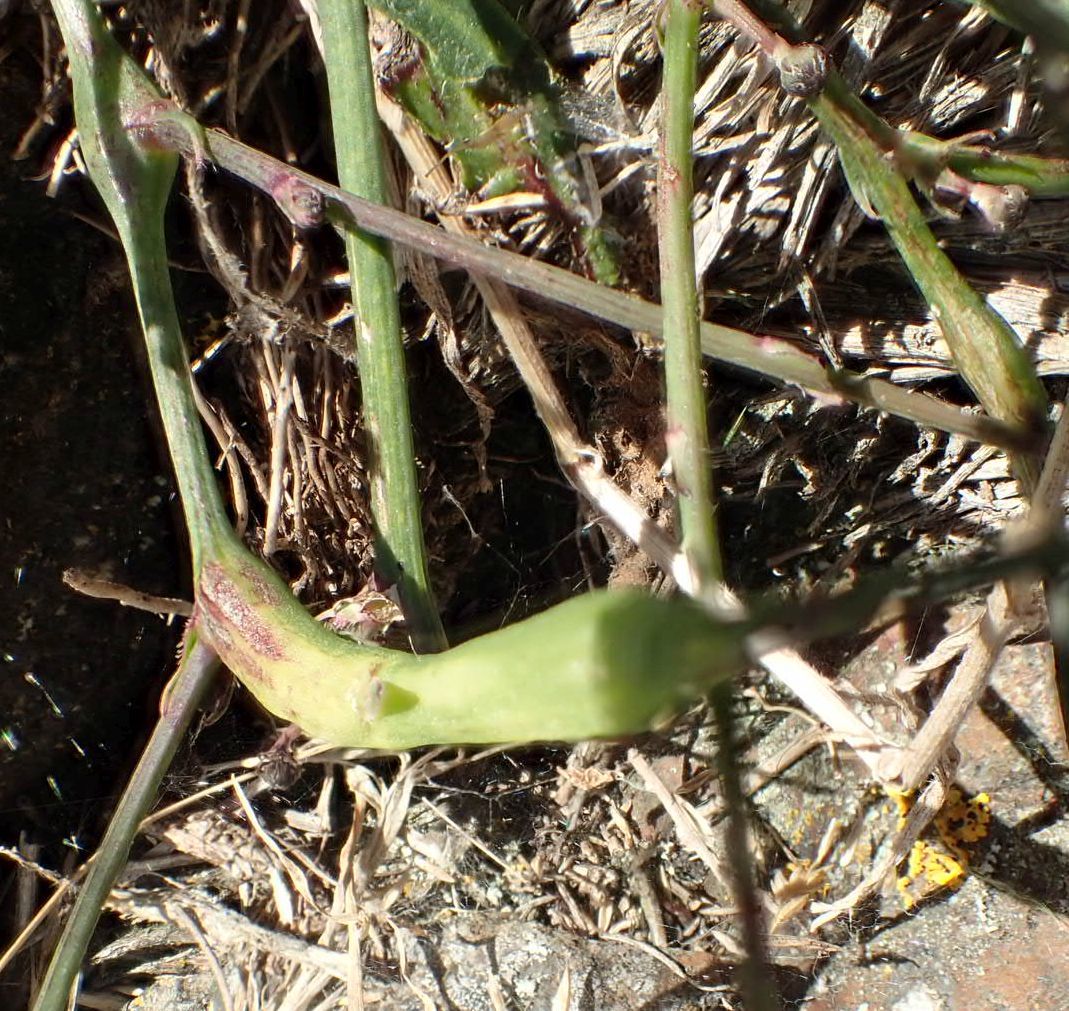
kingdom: Animalia
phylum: Arthropoda
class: Insecta
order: Hymenoptera
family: Cynipidae
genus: Phanacis
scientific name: Phanacis hypochoeridis
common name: Gall wasp
